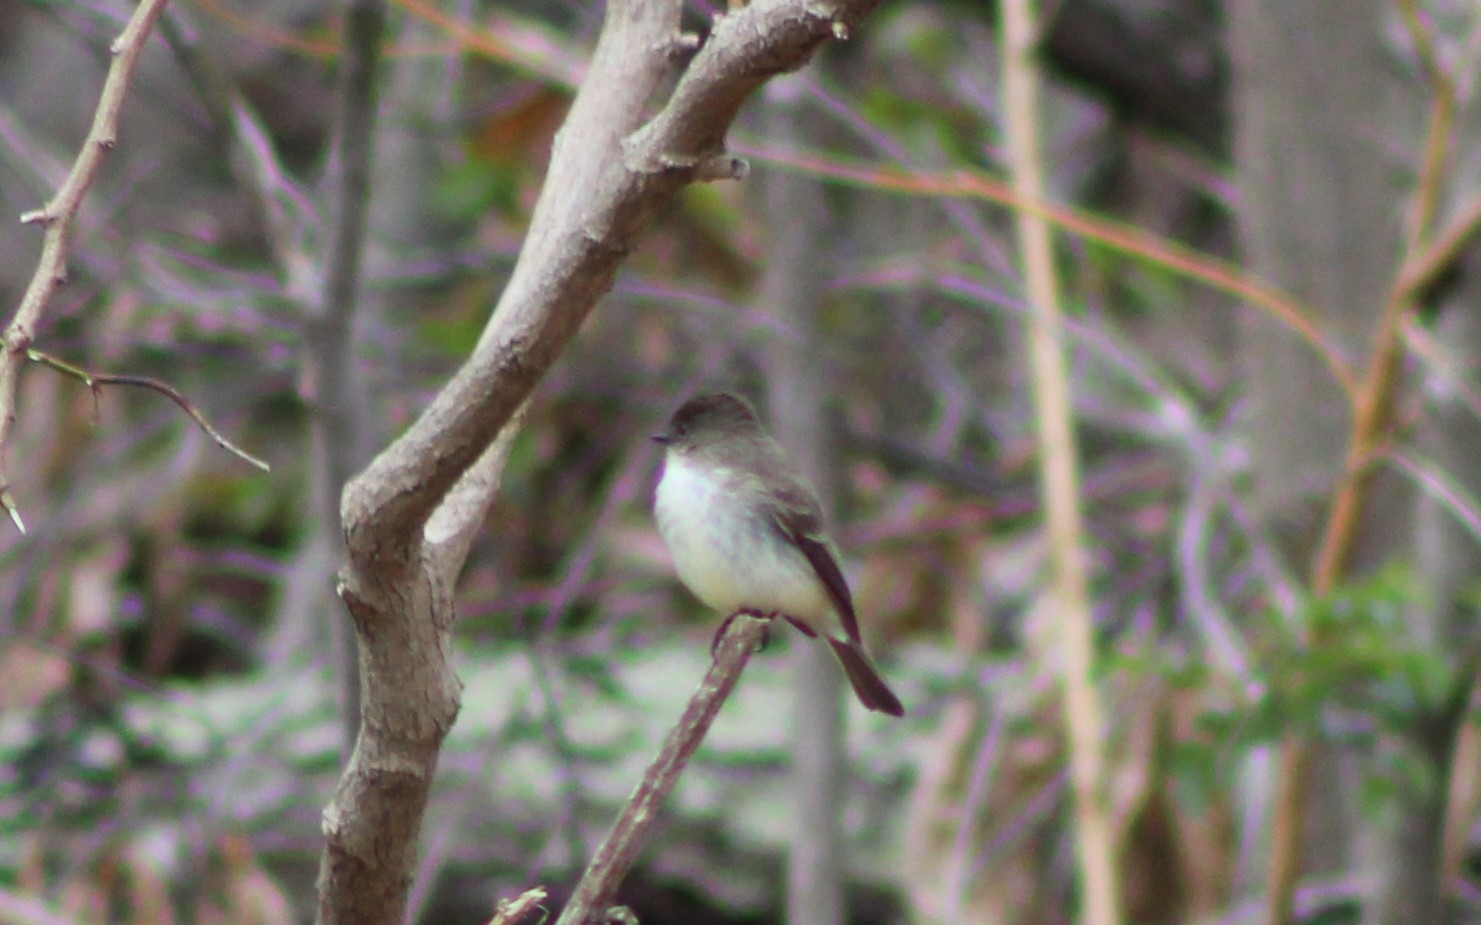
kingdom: Animalia
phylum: Chordata
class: Aves
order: Passeriformes
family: Tyrannidae
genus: Sayornis
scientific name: Sayornis phoebe
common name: Eastern phoebe
